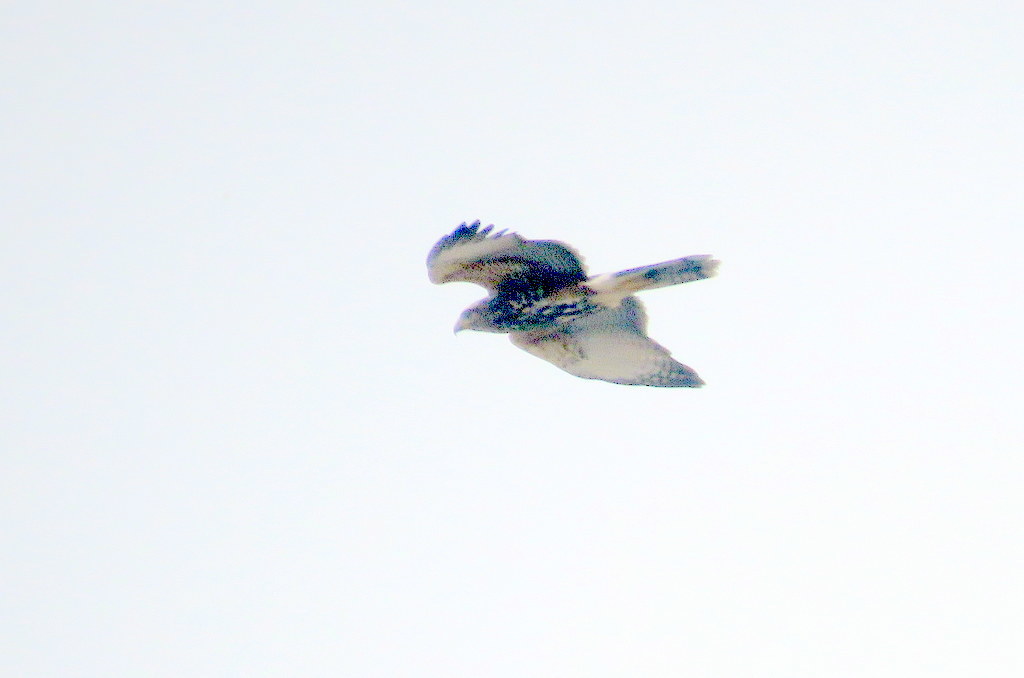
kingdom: Animalia
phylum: Chordata
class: Aves
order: Accipitriformes
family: Accipitridae
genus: Parabuteo
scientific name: Parabuteo unicinctus
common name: Harris's hawk
